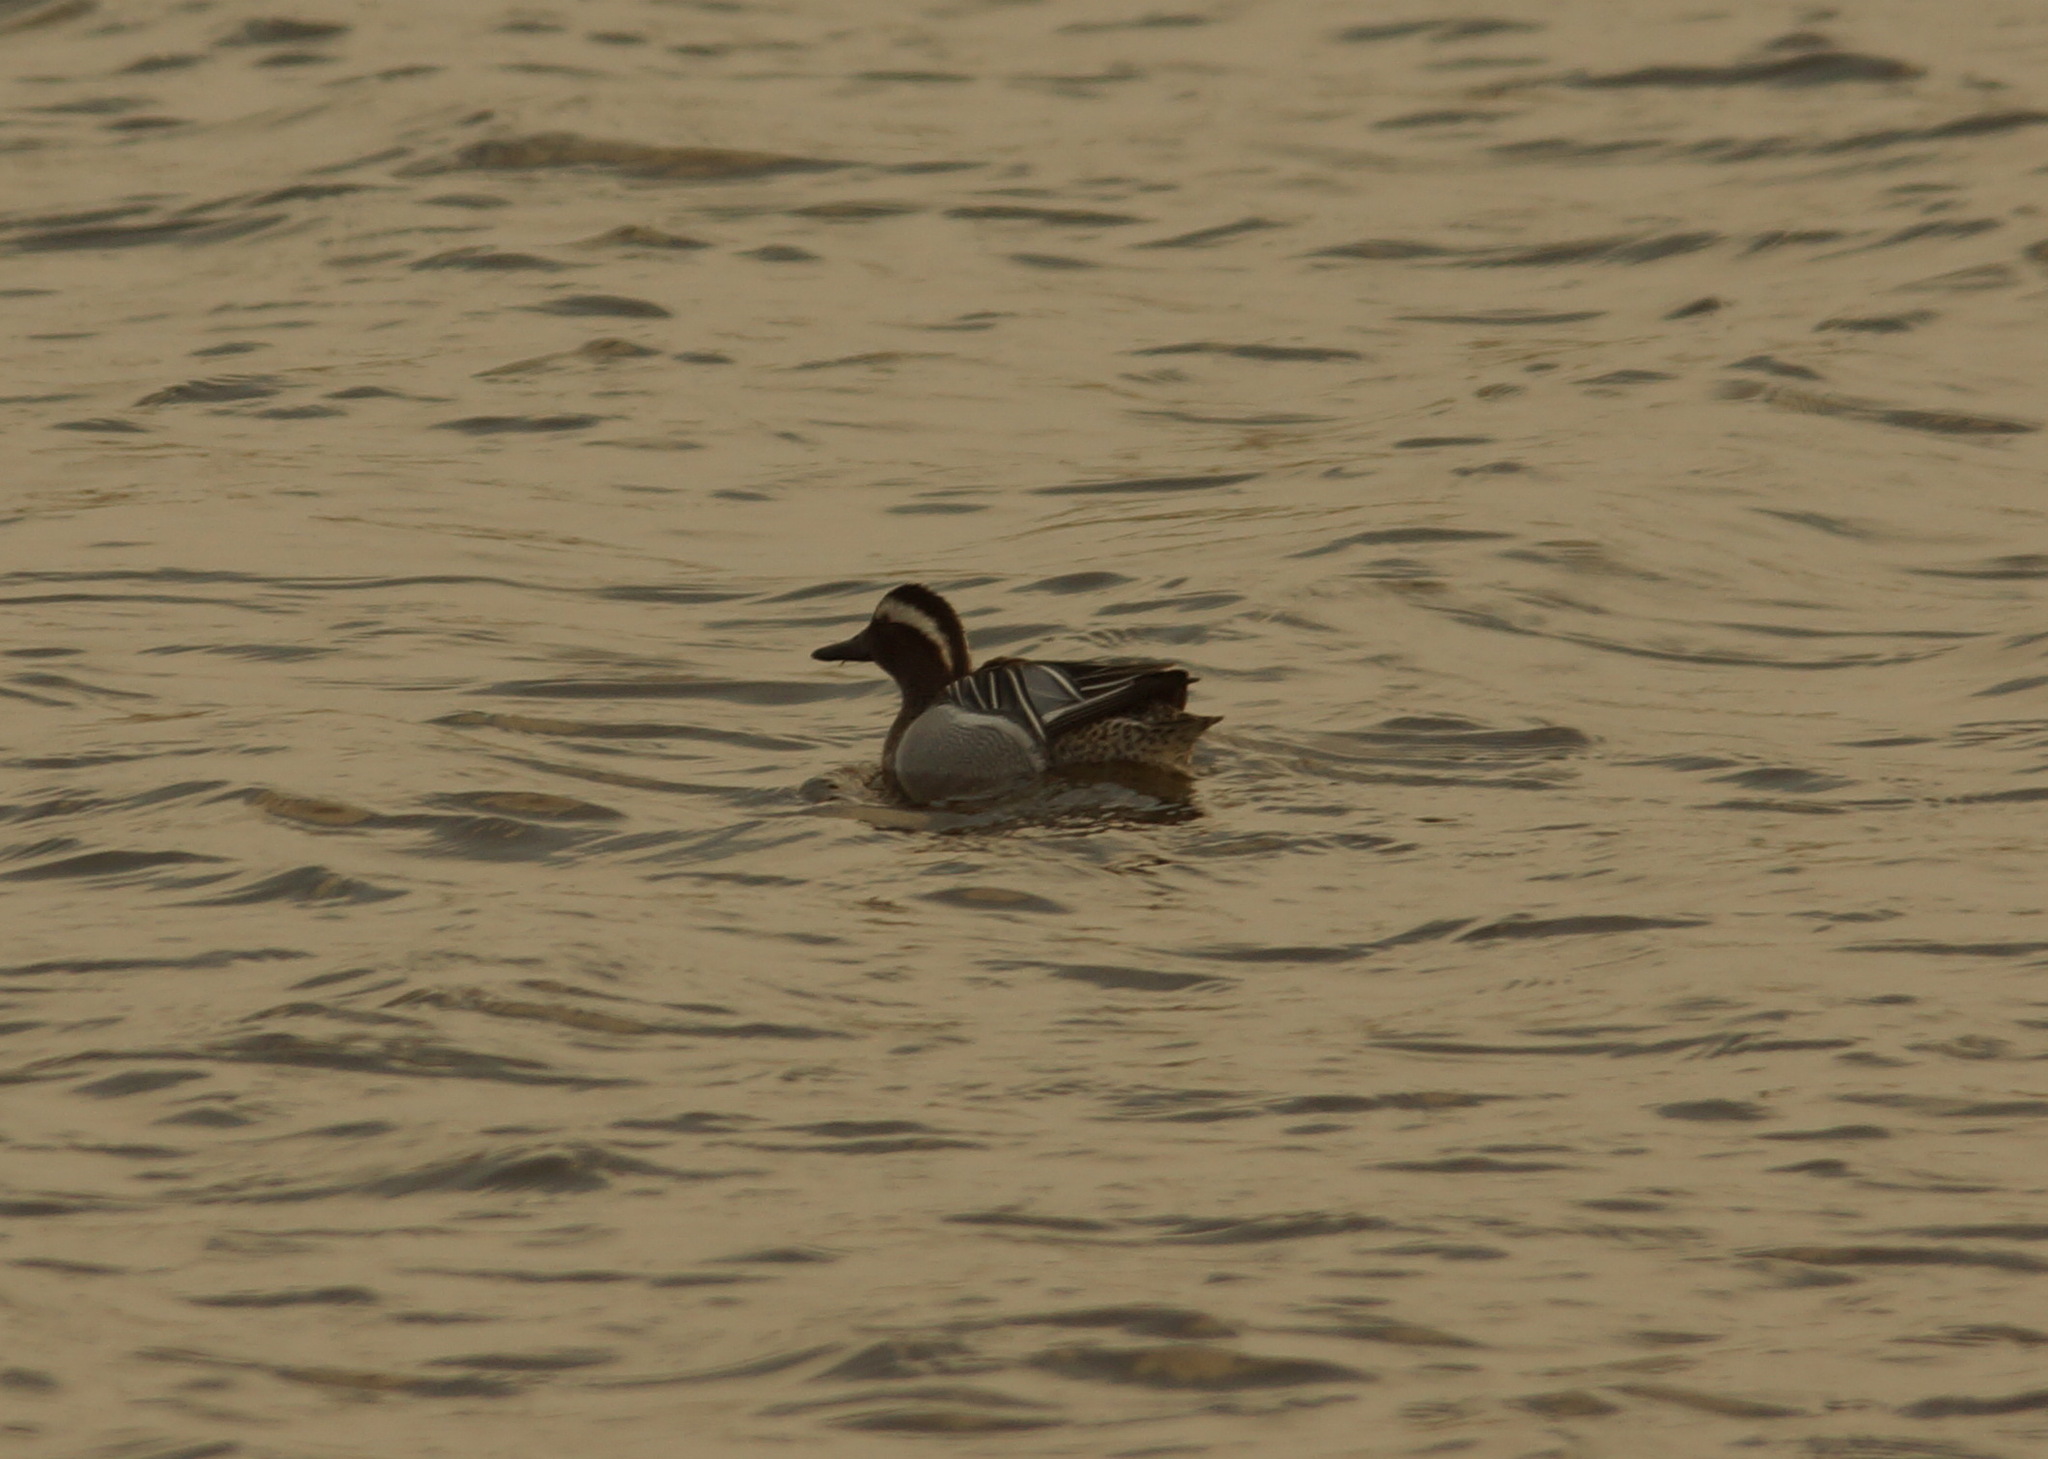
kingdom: Animalia
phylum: Chordata
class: Aves
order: Anseriformes
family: Anatidae
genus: Spatula
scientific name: Spatula querquedula
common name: Garganey
